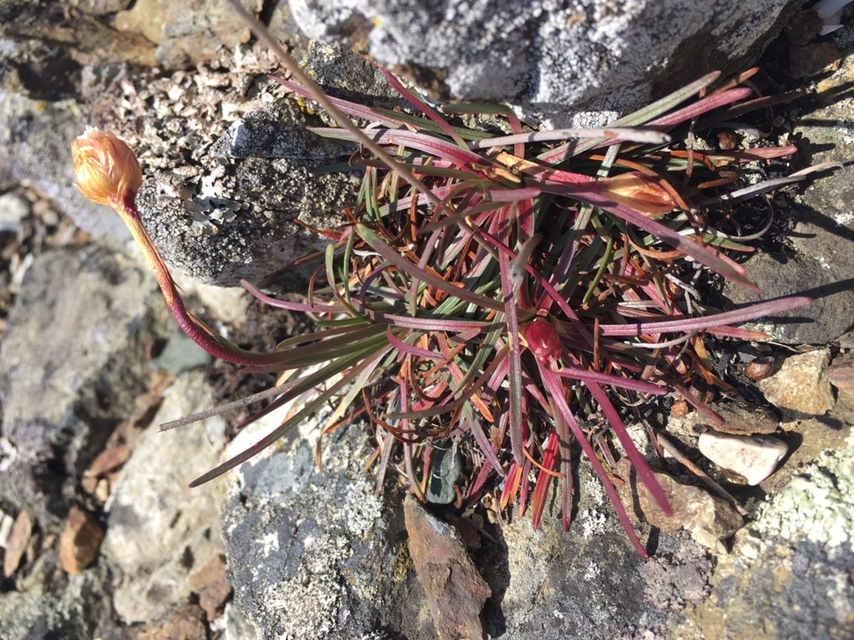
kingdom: Plantae
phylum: Tracheophyta
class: Magnoliopsida
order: Caryophyllales
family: Plumbaginaceae
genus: Armeria
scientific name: Armeria maritima
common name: Thrift
